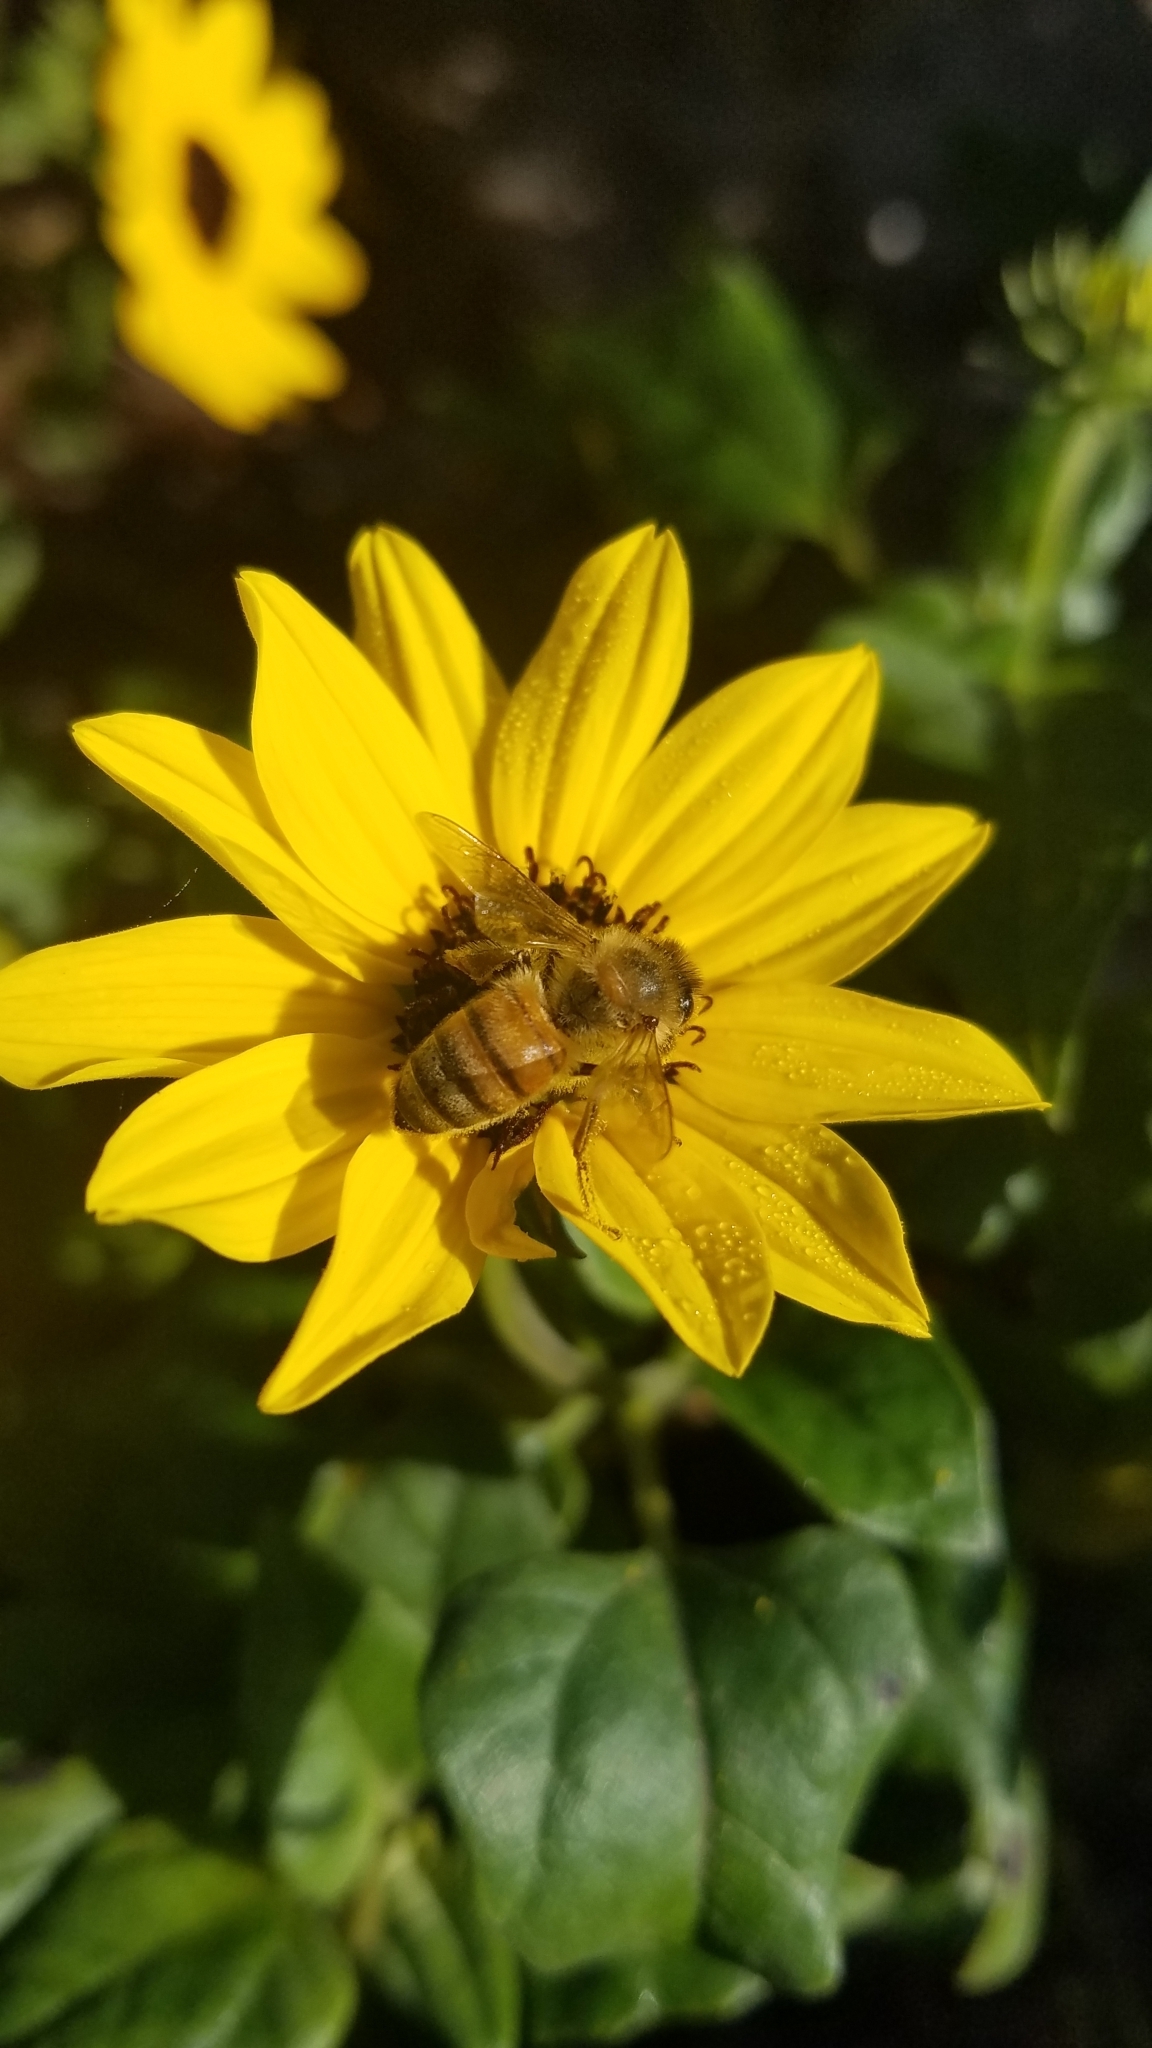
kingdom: Animalia
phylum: Arthropoda
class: Insecta
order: Hymenoptera
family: Apidae
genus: Apis
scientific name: Apis mellifera
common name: Honey bee
